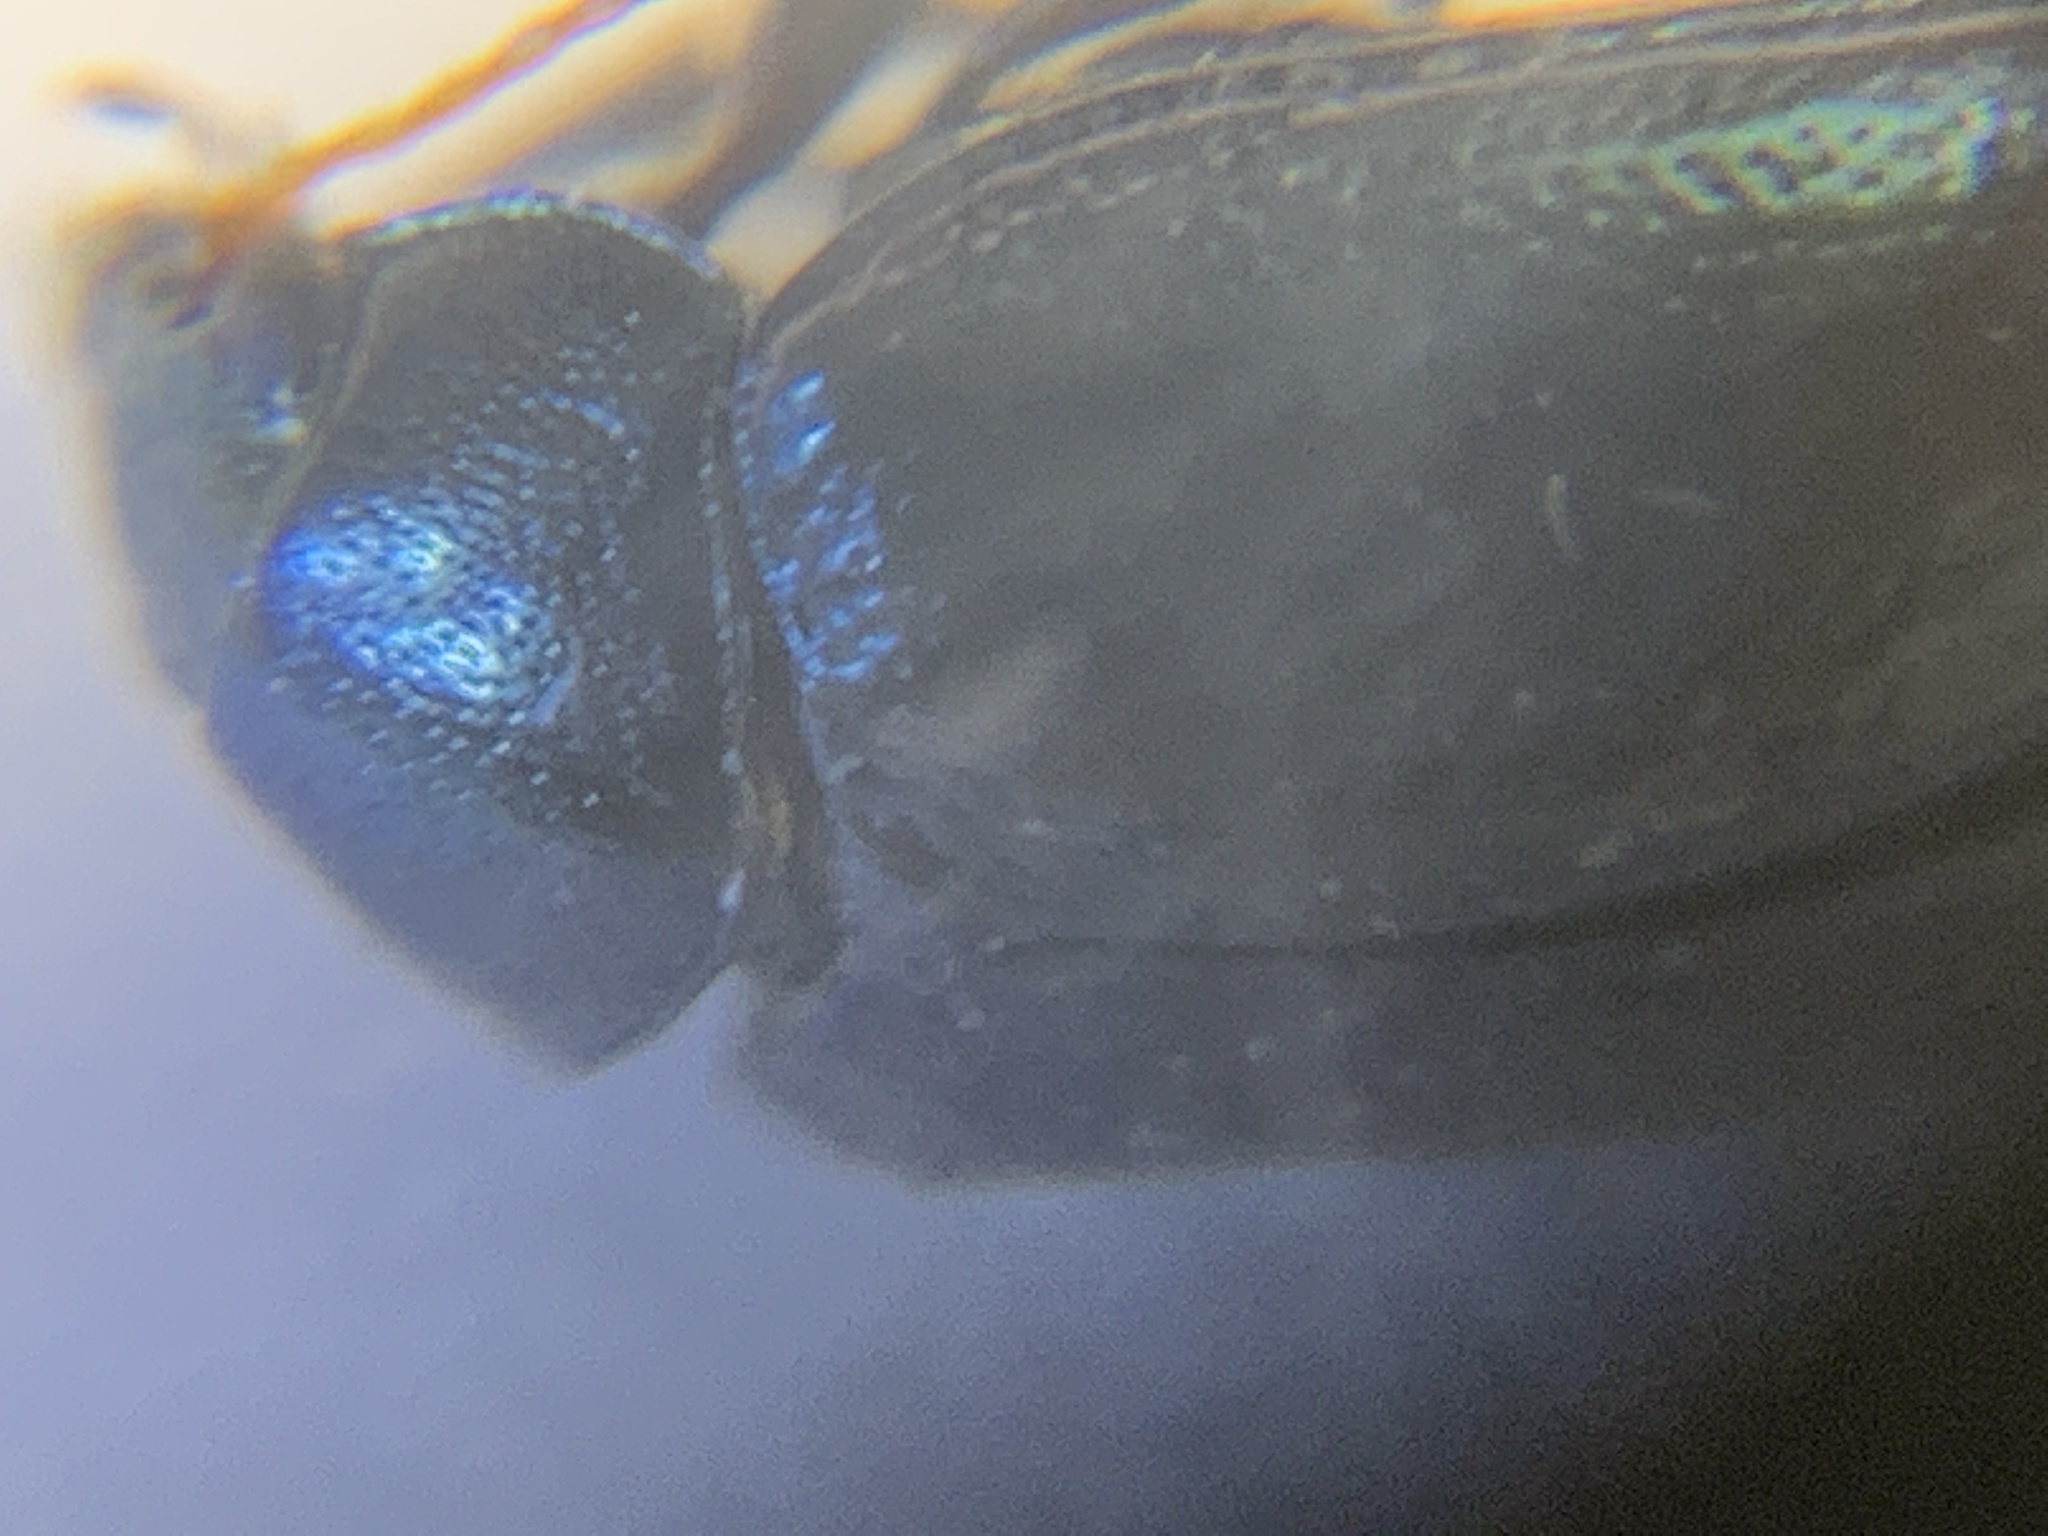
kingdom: Animalia
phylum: Arthropoda
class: Insecta
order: Coleoptera
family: Chrysomelidae
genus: Brachypnoea
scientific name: Brachypnoea lecontei
